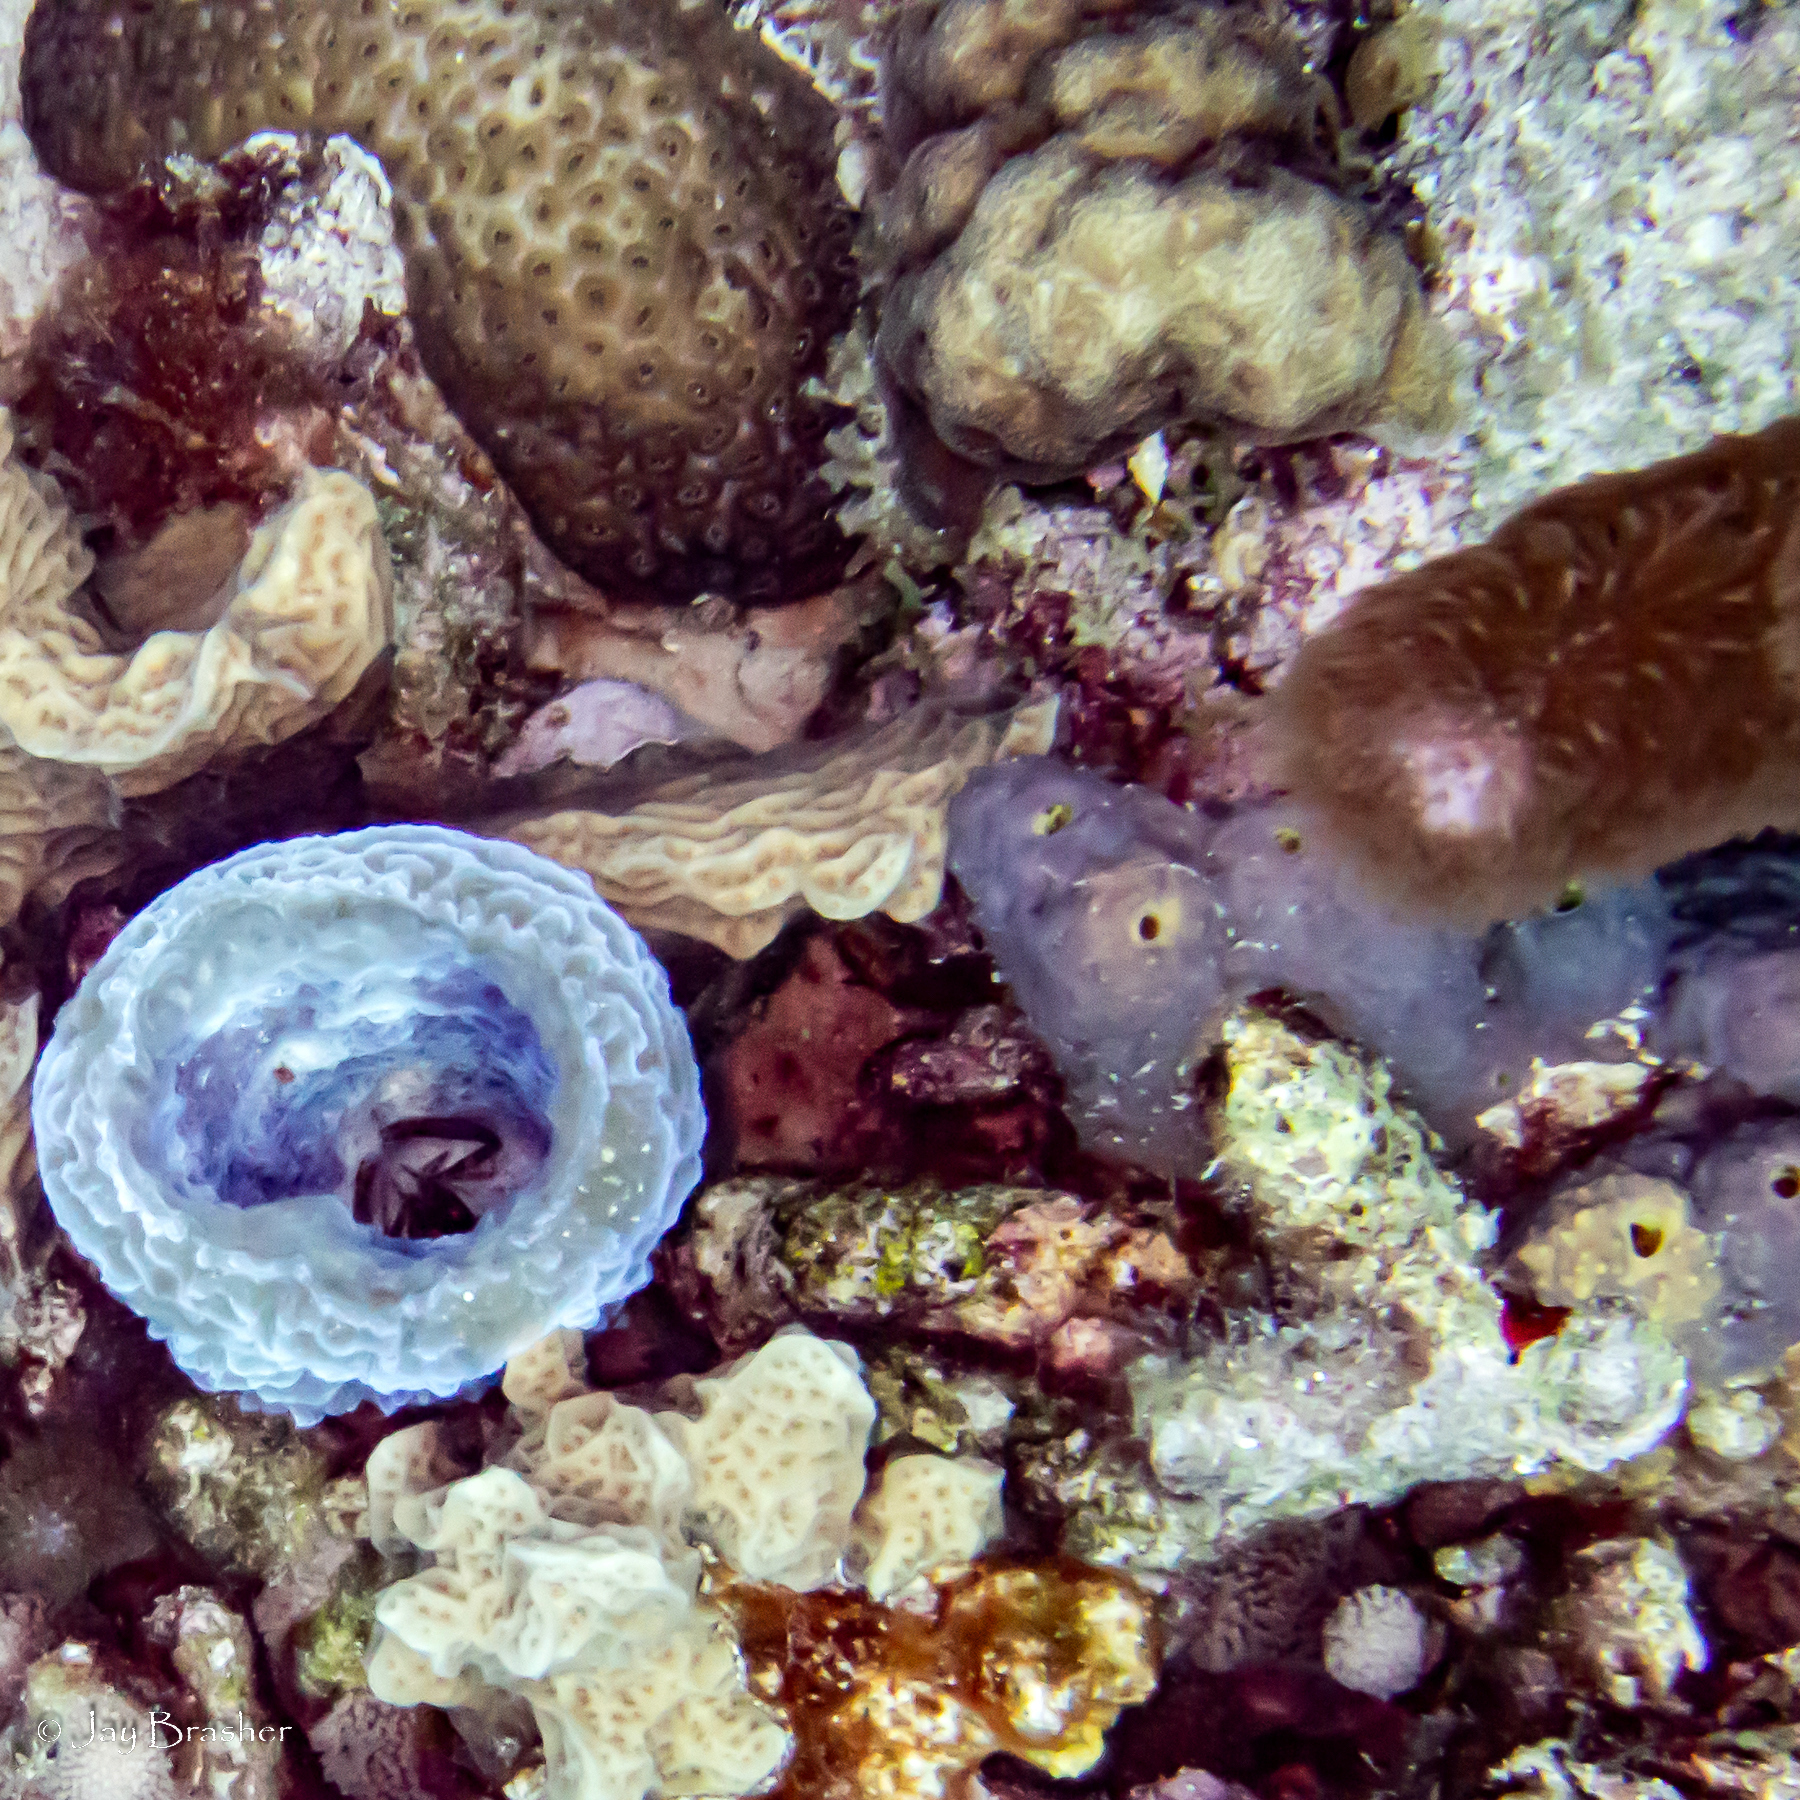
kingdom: Animalia
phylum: Porifera
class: Demospongiae
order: Verongiida
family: Aplysinidae
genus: Aiolochroia
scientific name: Aiolochroia crassa
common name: Branching tube sponge
